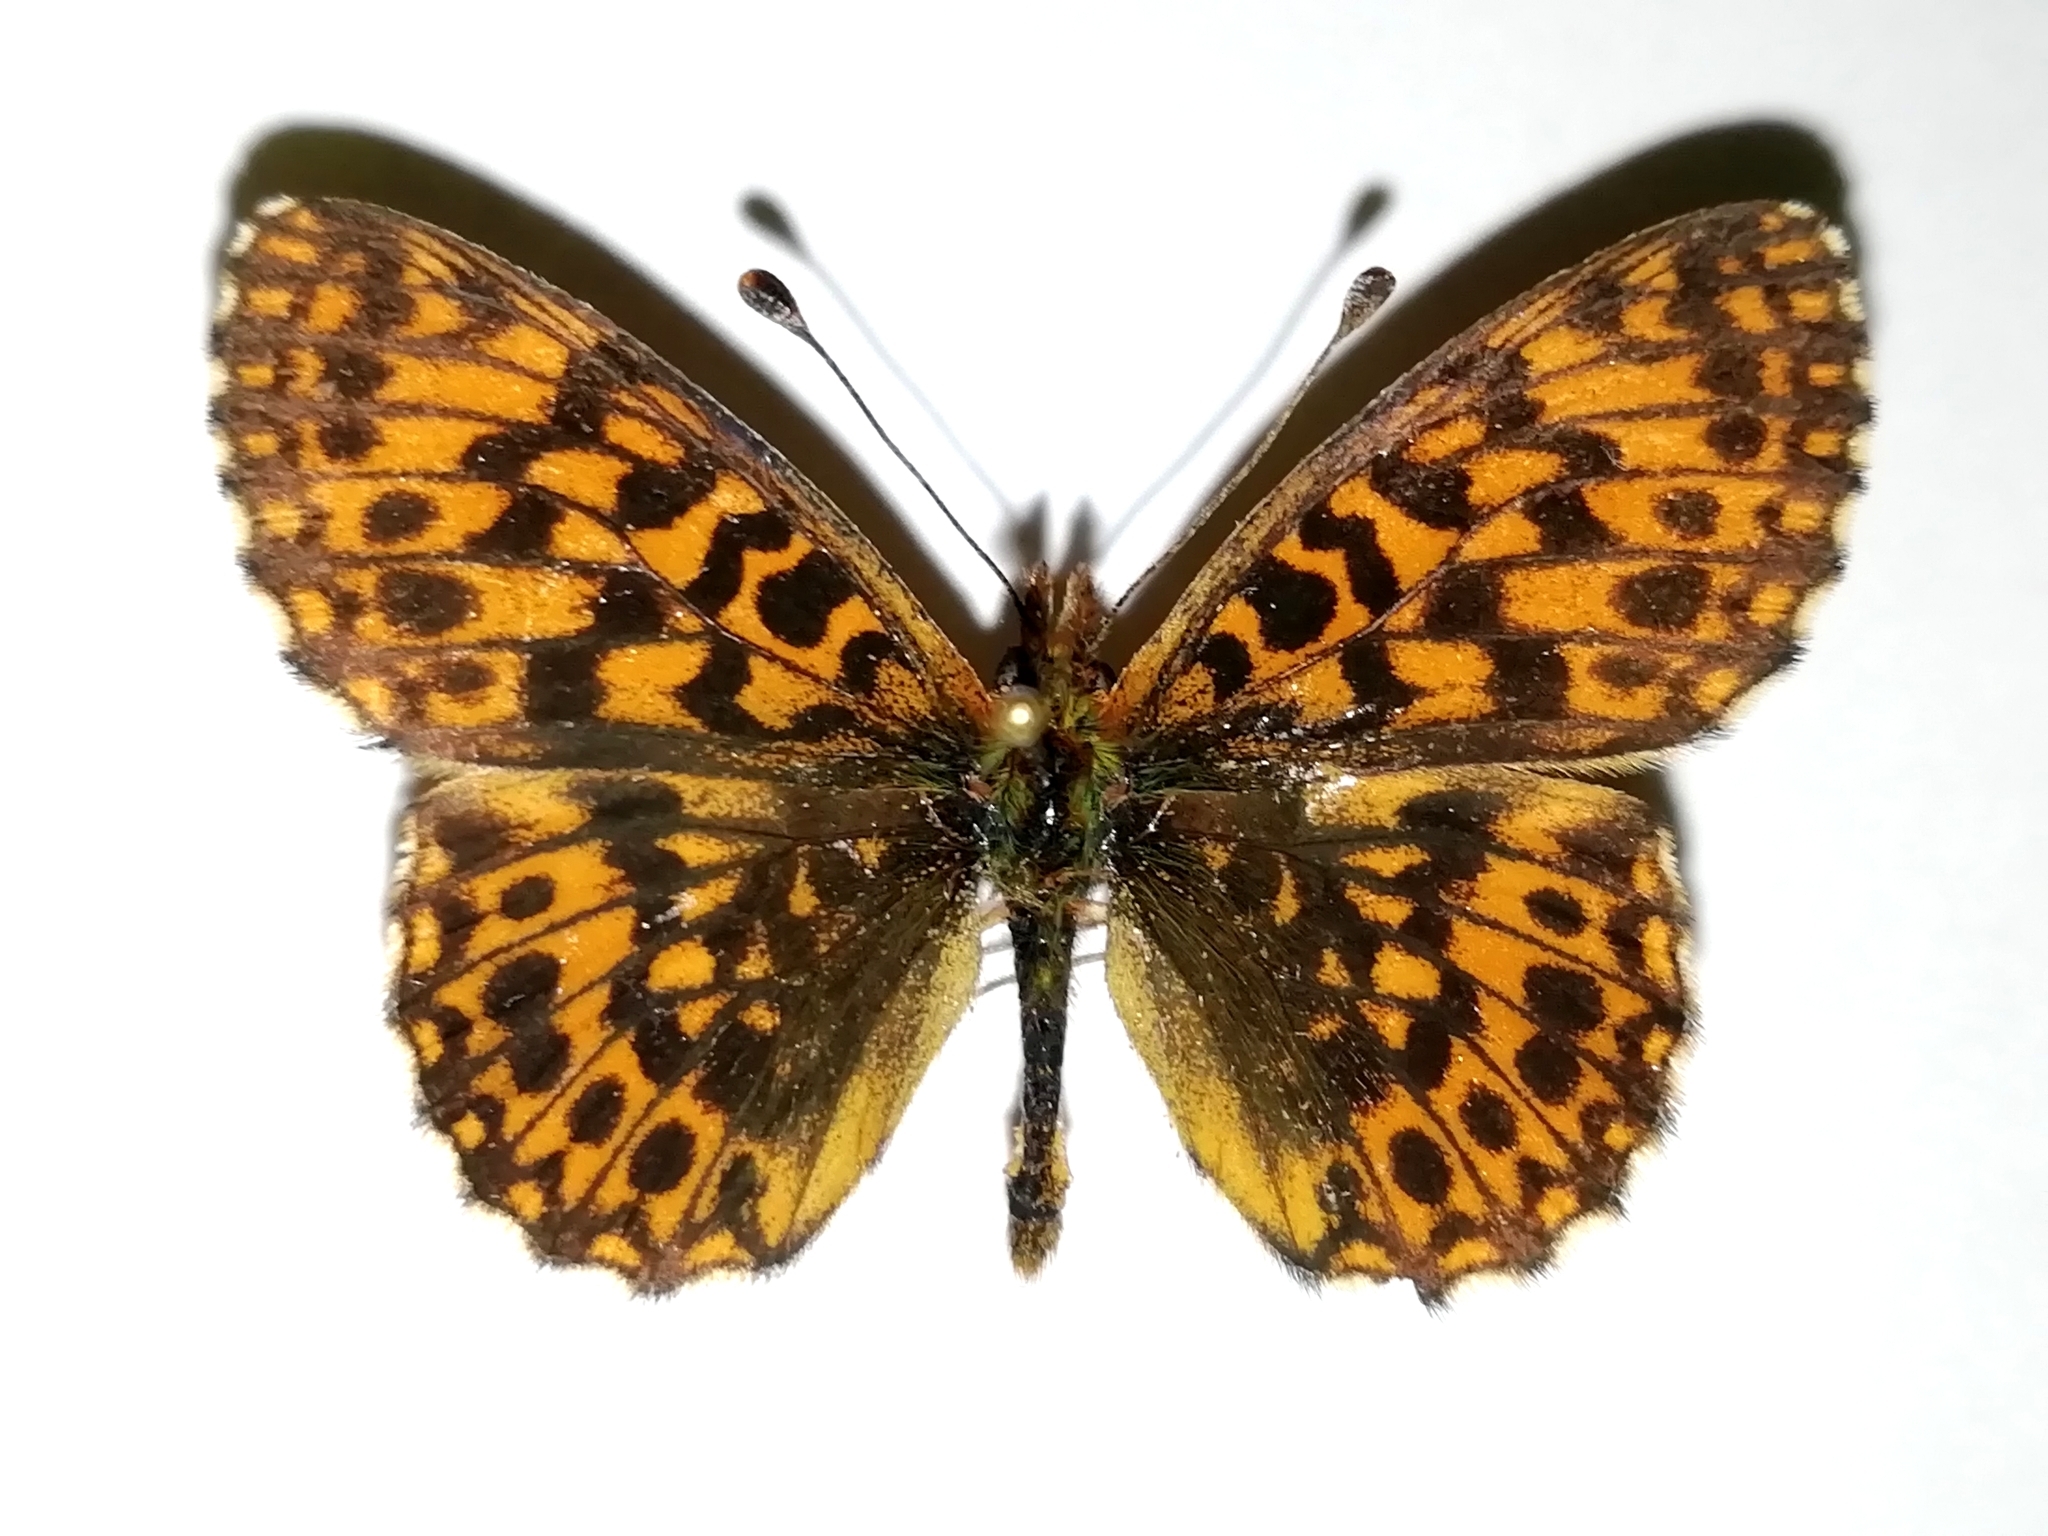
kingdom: Animalia
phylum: Arthropoda
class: Insecta
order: Lepidoptera
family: Nymphalidae
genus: Boloria
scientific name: Boloria dia
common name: Weaver's fritillary
